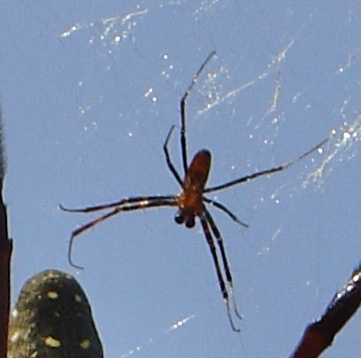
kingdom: Animalia
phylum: Arthropoda
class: Arachnida
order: Araneae
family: Araneidae
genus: Trichonephila
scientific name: Trichonephila antipodiana
